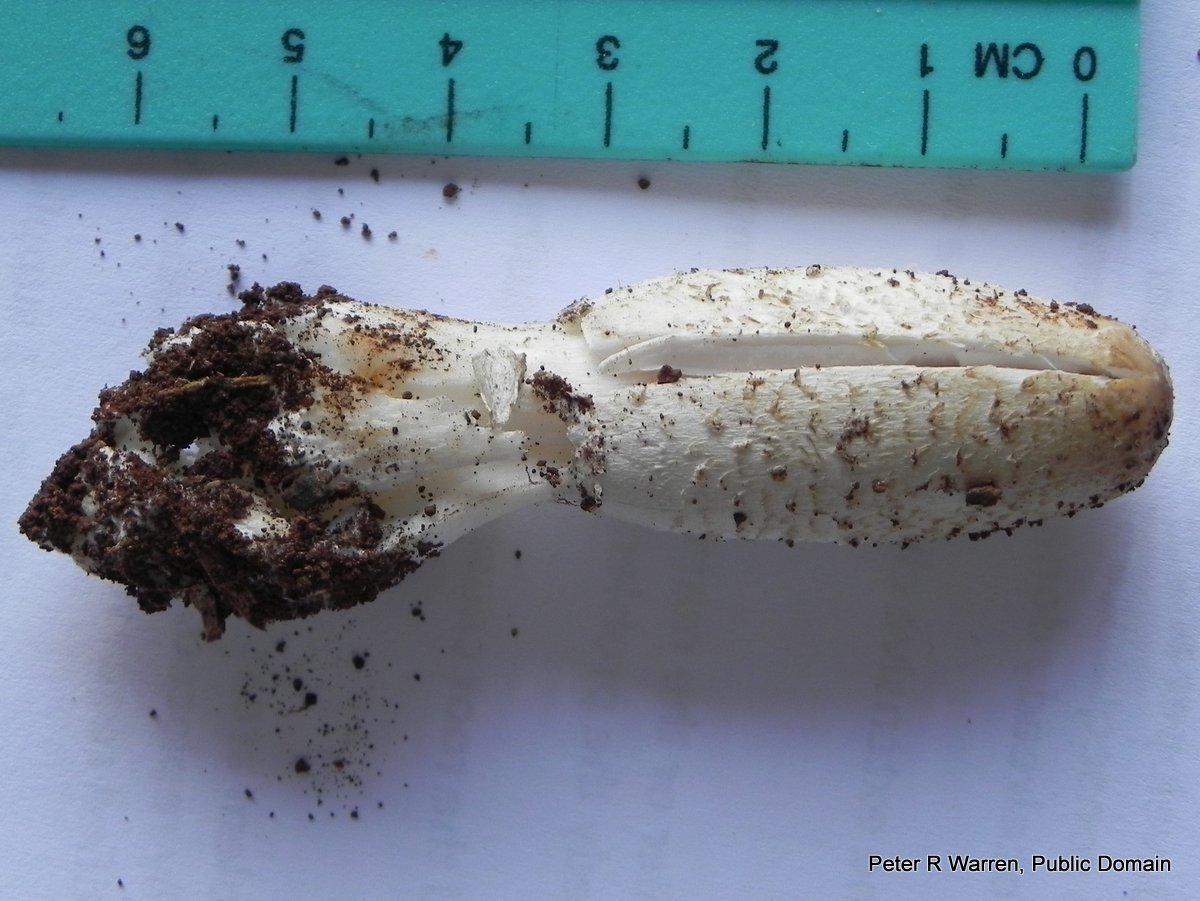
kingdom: Fungi
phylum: Basidiomycota
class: Agaricomycetes
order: Agaricales
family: Agaricaceae
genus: Coprinus
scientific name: Coprinus comatus
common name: Lawyer's wig
